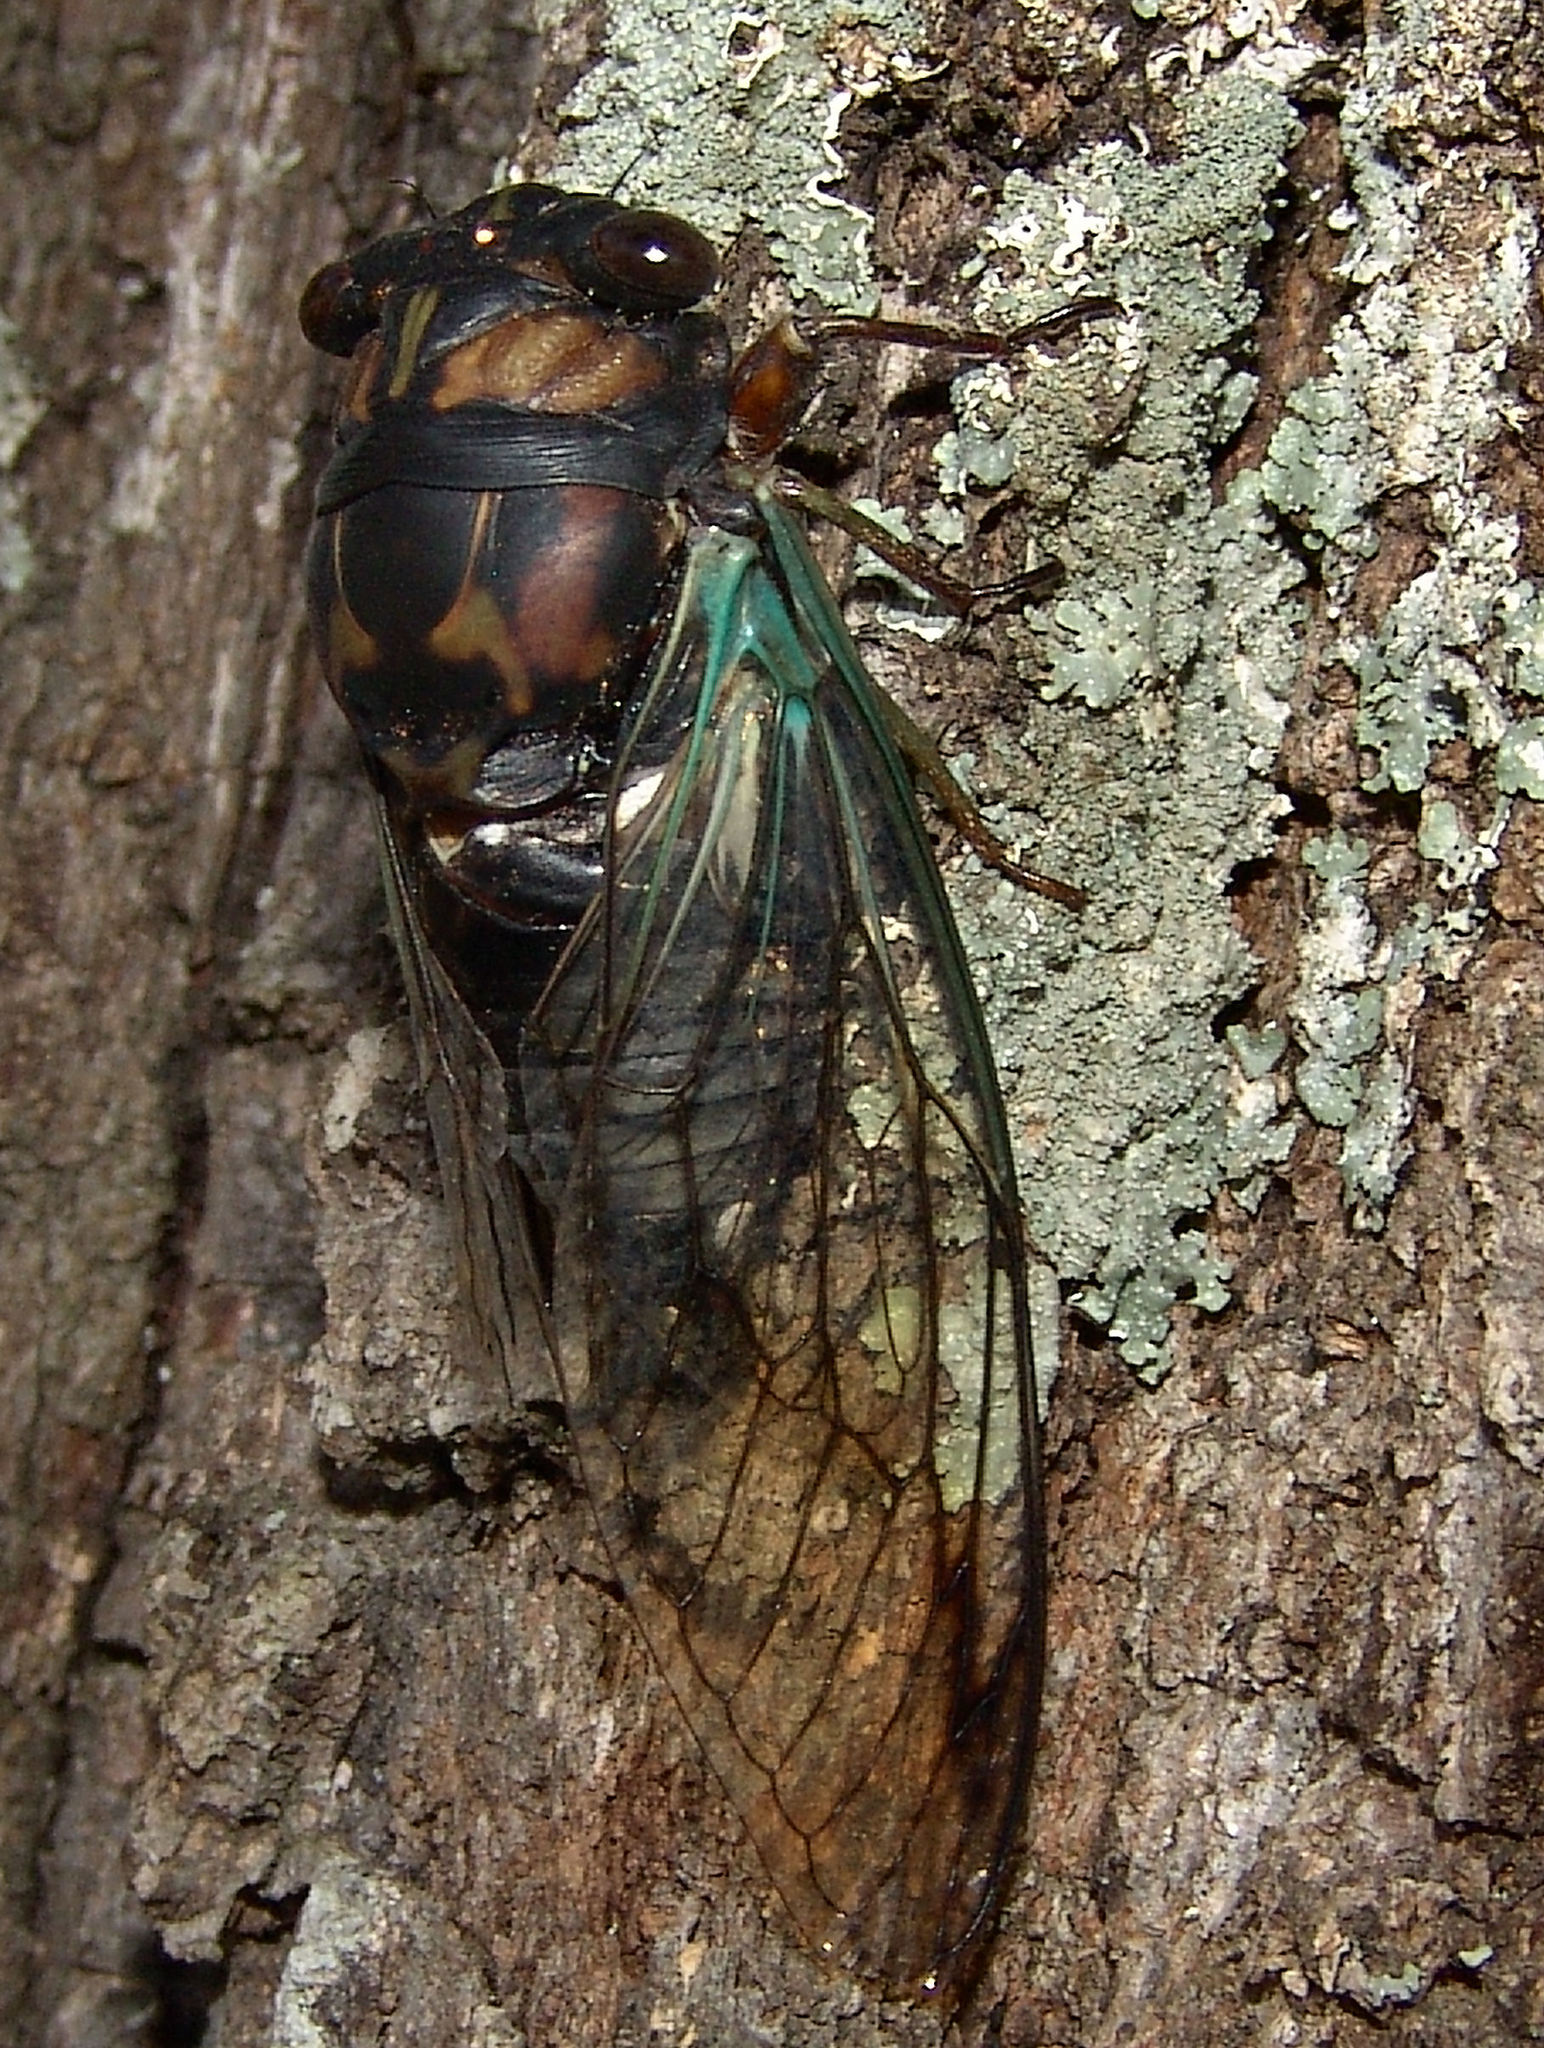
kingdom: Animalia
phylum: Arthropoda
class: Insecta
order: Hemiptera
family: Cicadidae
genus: Neotibicen
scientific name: Neotibicen lyricen
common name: Lyric cicada
